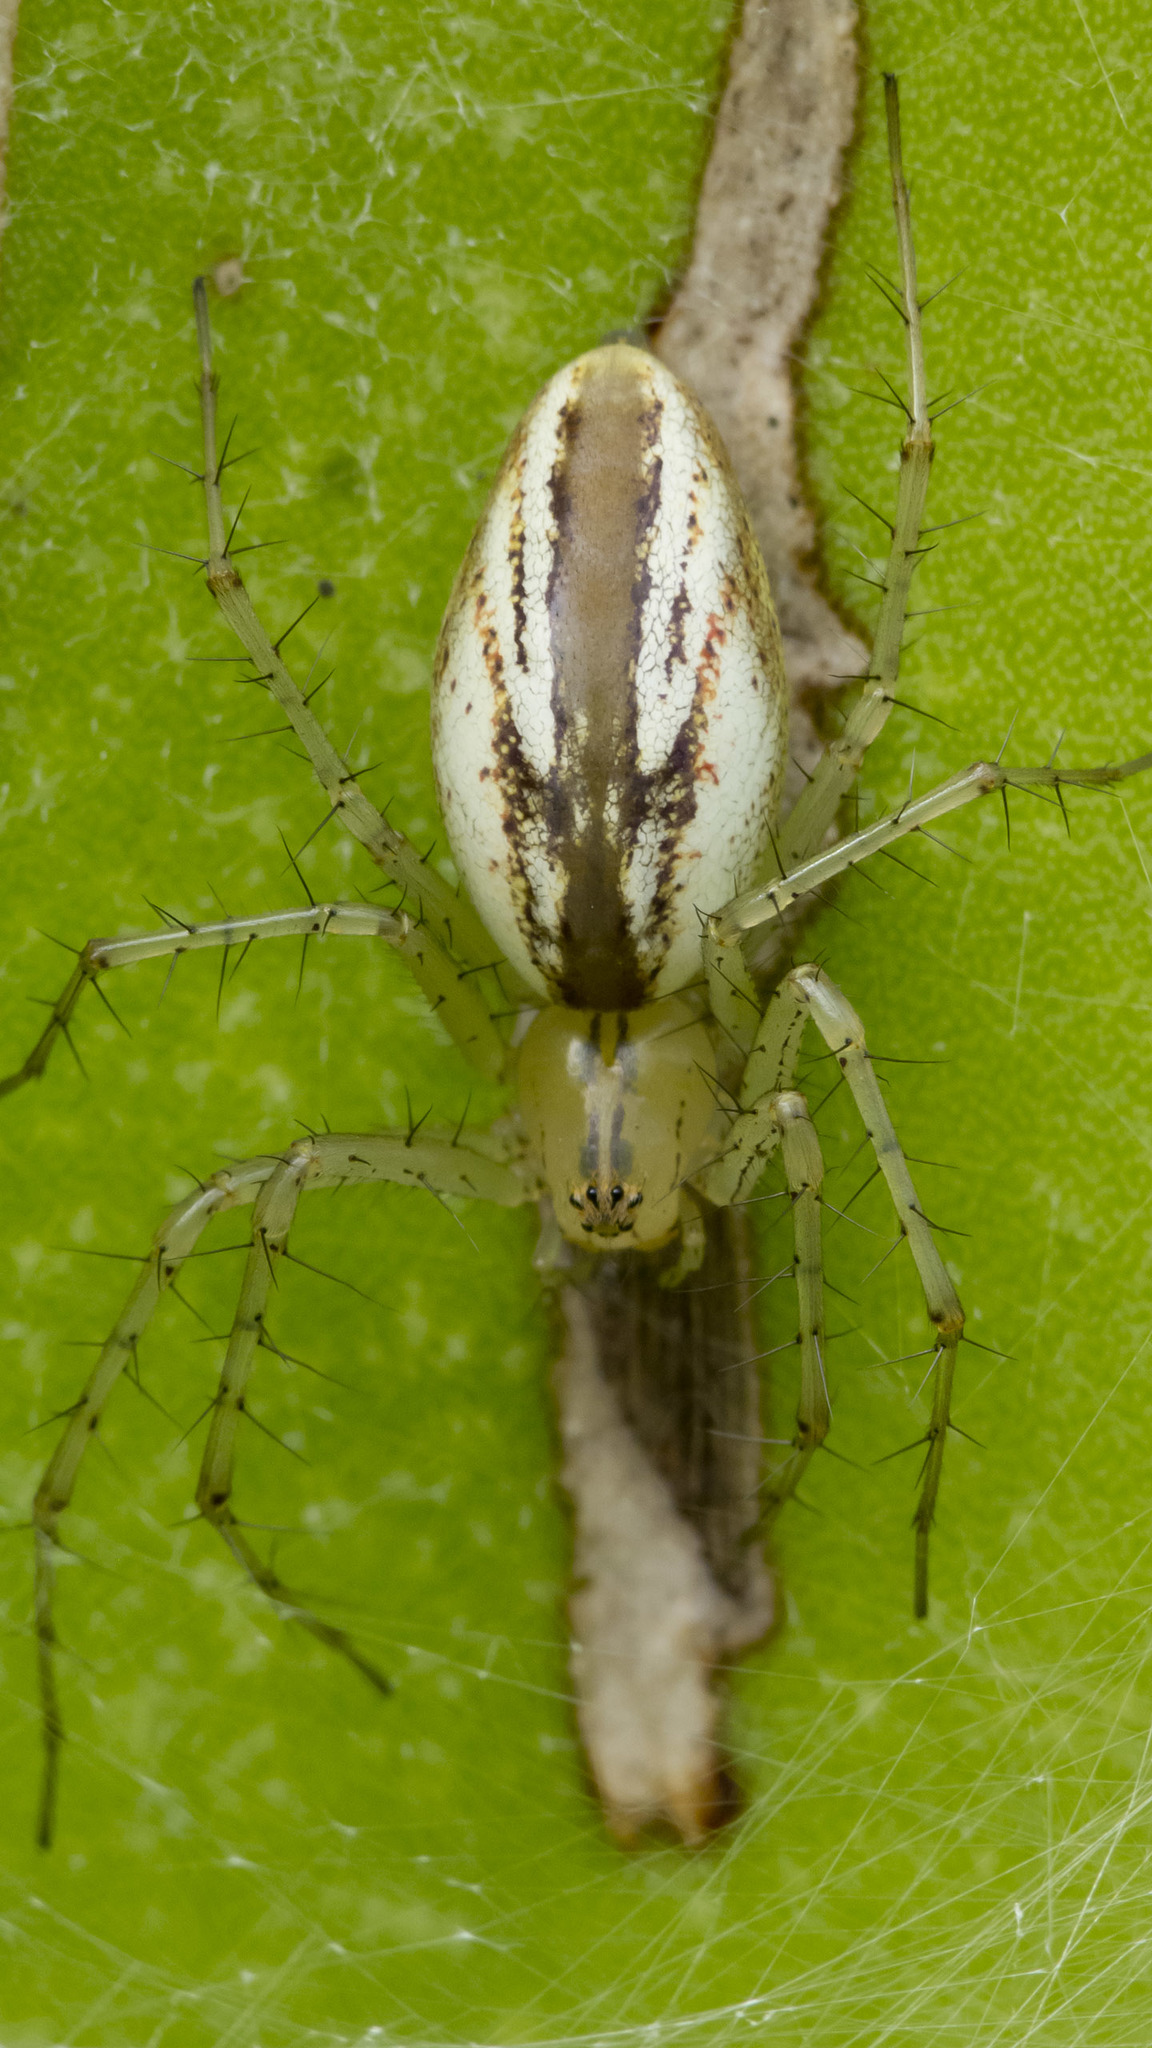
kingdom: Animalia
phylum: Arthropoda
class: Arachnida
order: Araneae
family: Oxyopidae
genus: Peucetia
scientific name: Peucetia rubrolineata
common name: Lynx spiders
